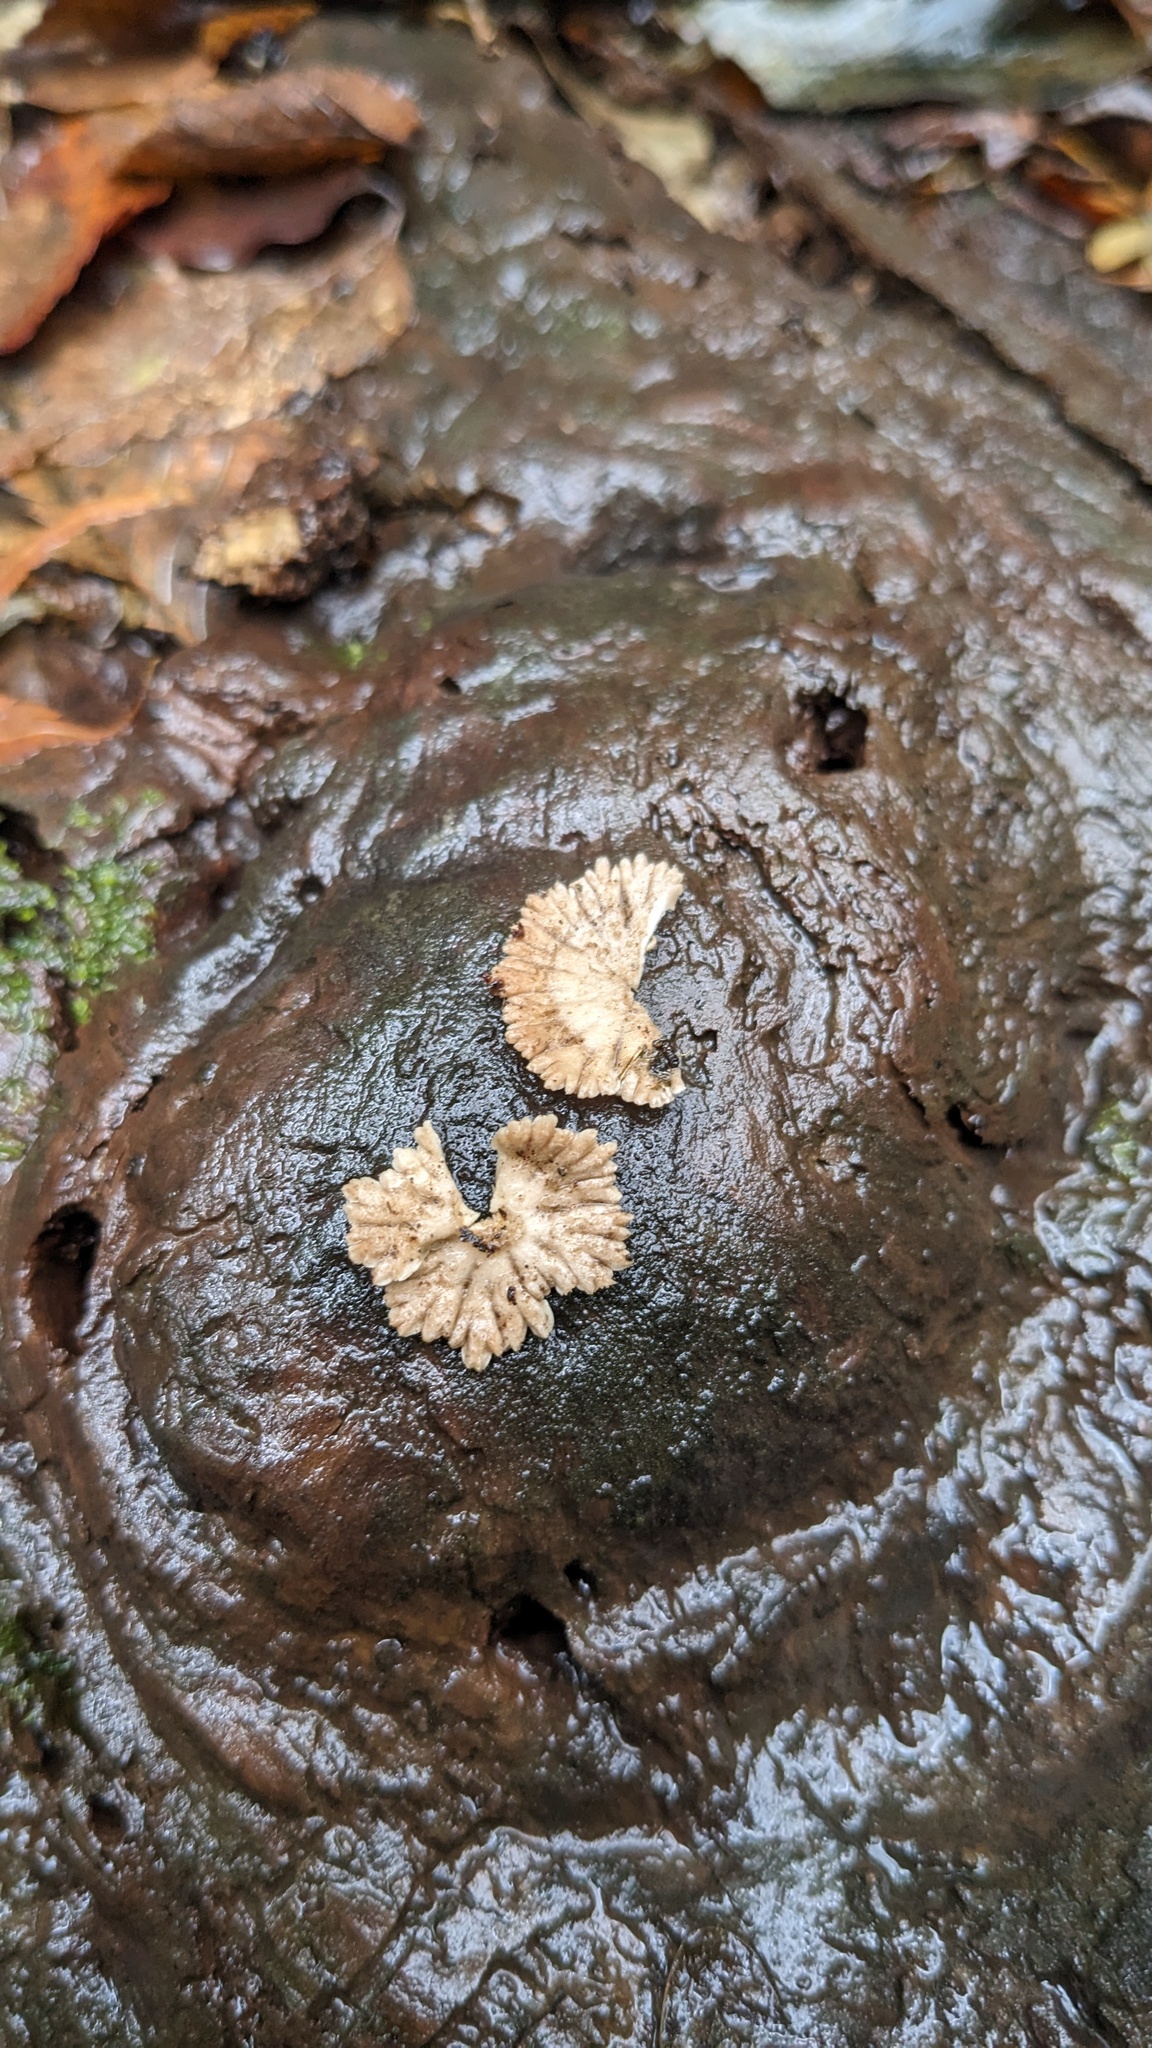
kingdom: Fungi
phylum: Basidiomycota
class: Agaricomycetes
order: Agaricales
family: Schizophyllaceae
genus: Schizophyllum
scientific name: Schizophyllum commune
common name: Common porecrust
